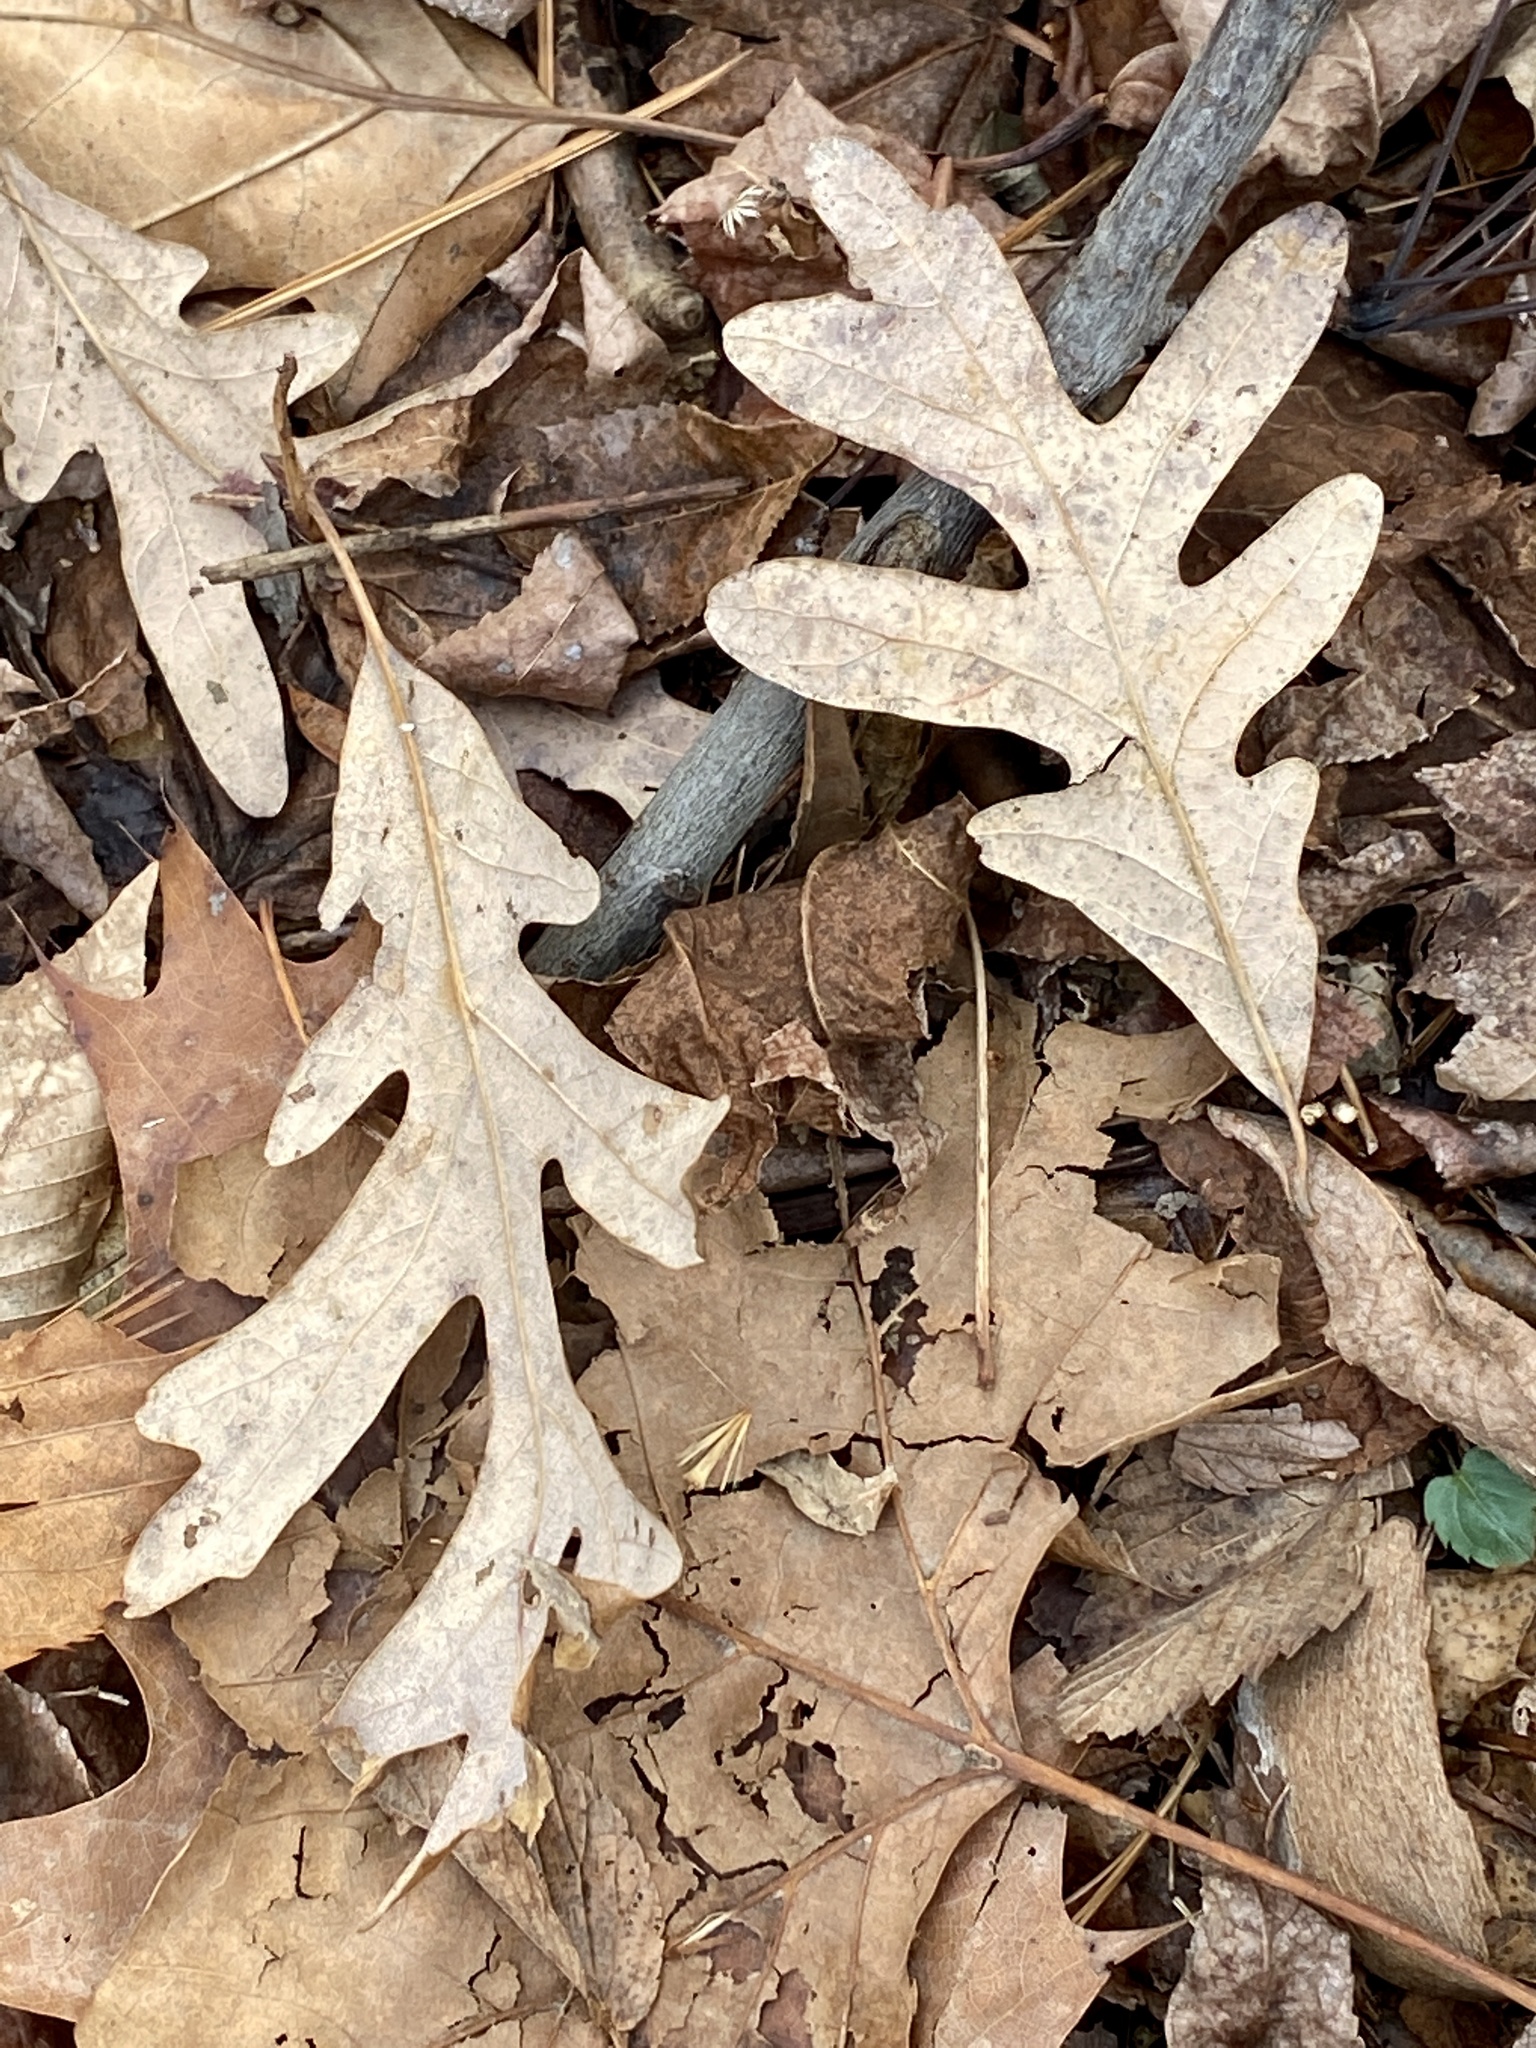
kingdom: Plantae
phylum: Tracheophyta
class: Magnoliopsida
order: Fagales
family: Fagaceae
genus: Quercus
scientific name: Quercus alba
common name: White oak
